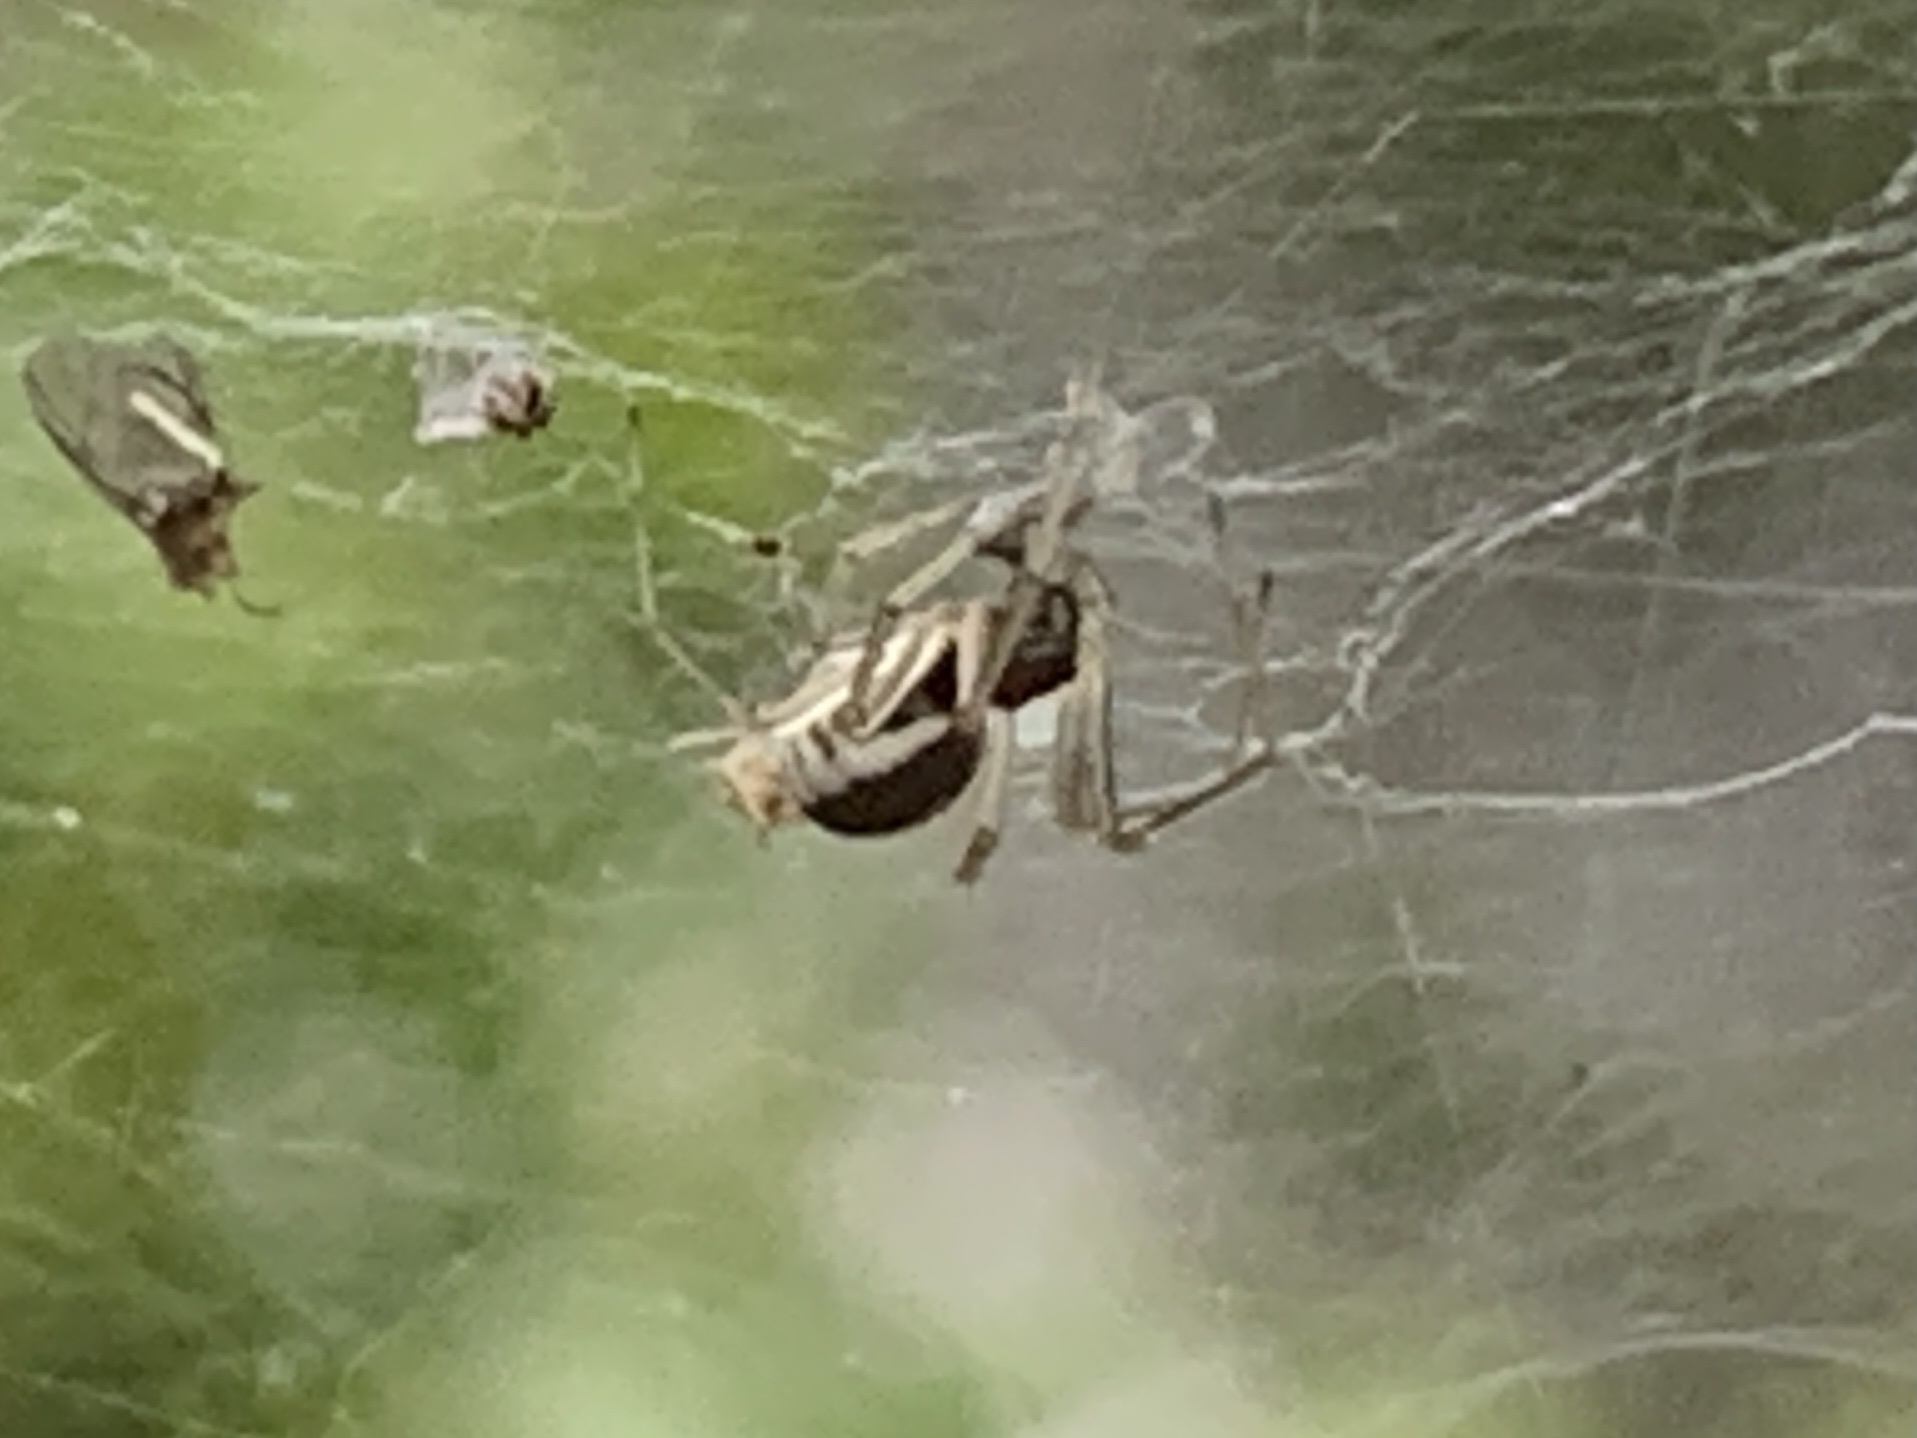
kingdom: Animalia
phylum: Arthropoda
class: Arachnida
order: Araneae
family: Linyphiidae
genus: Frontinella
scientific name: Frontinella pyramitela
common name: Bowl-and-doily spider
